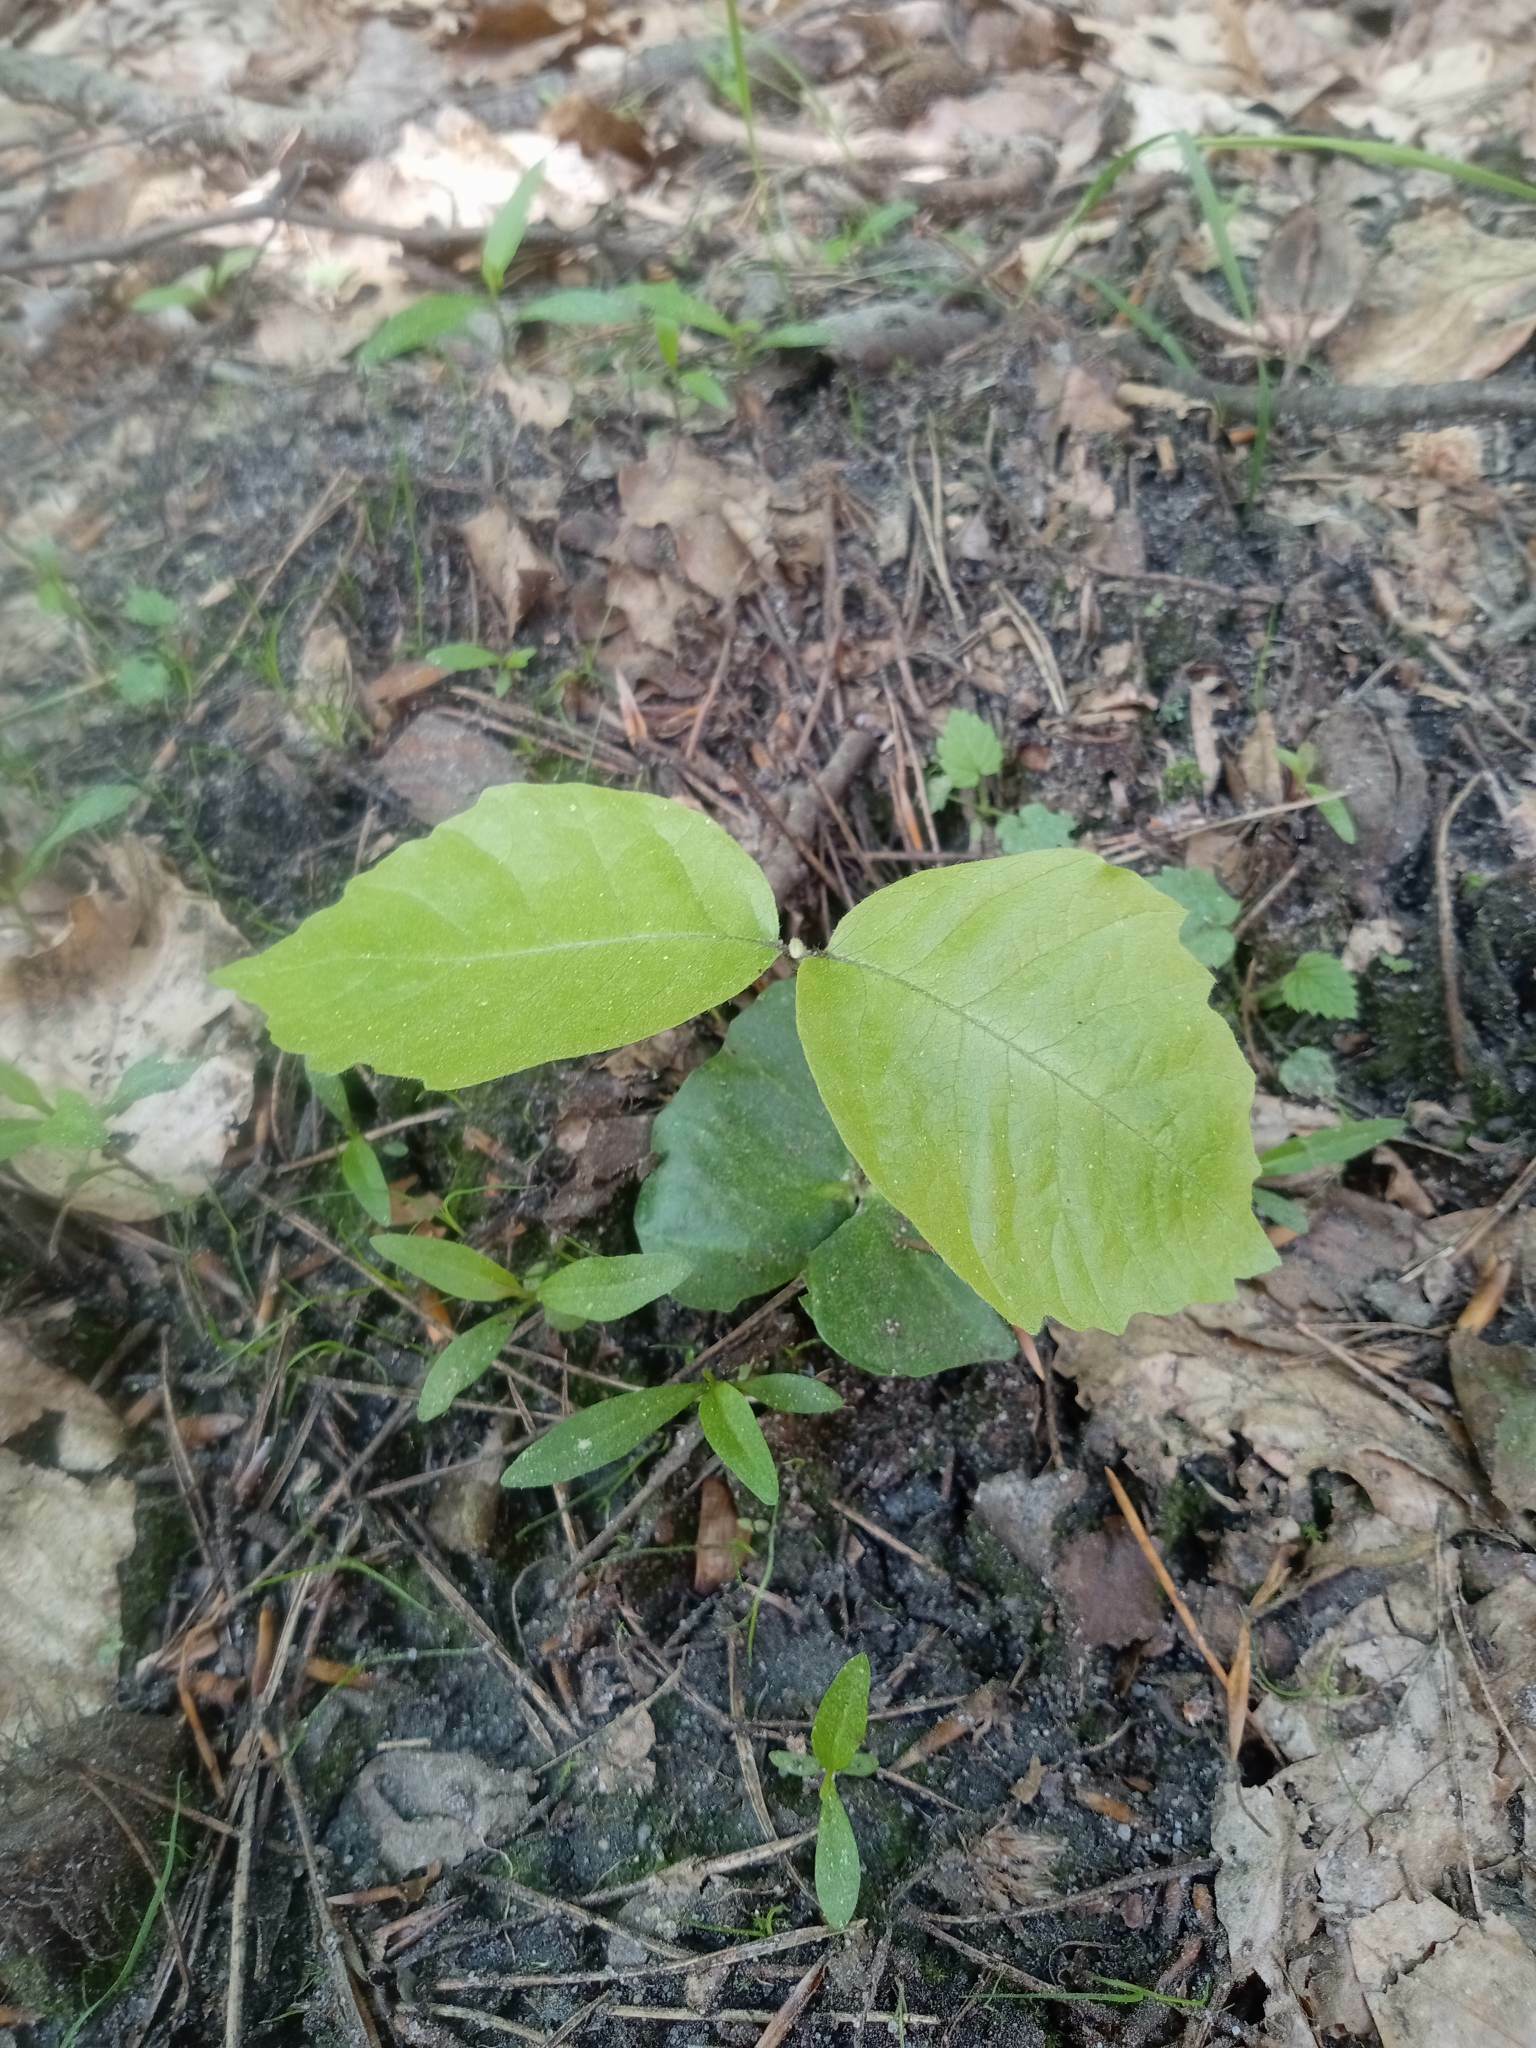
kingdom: Plantae
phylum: Tracheophyta
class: Magnoliopsida
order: Fagales
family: Fagaceae
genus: Fagus
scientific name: Fagus sylvatica
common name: Beech
